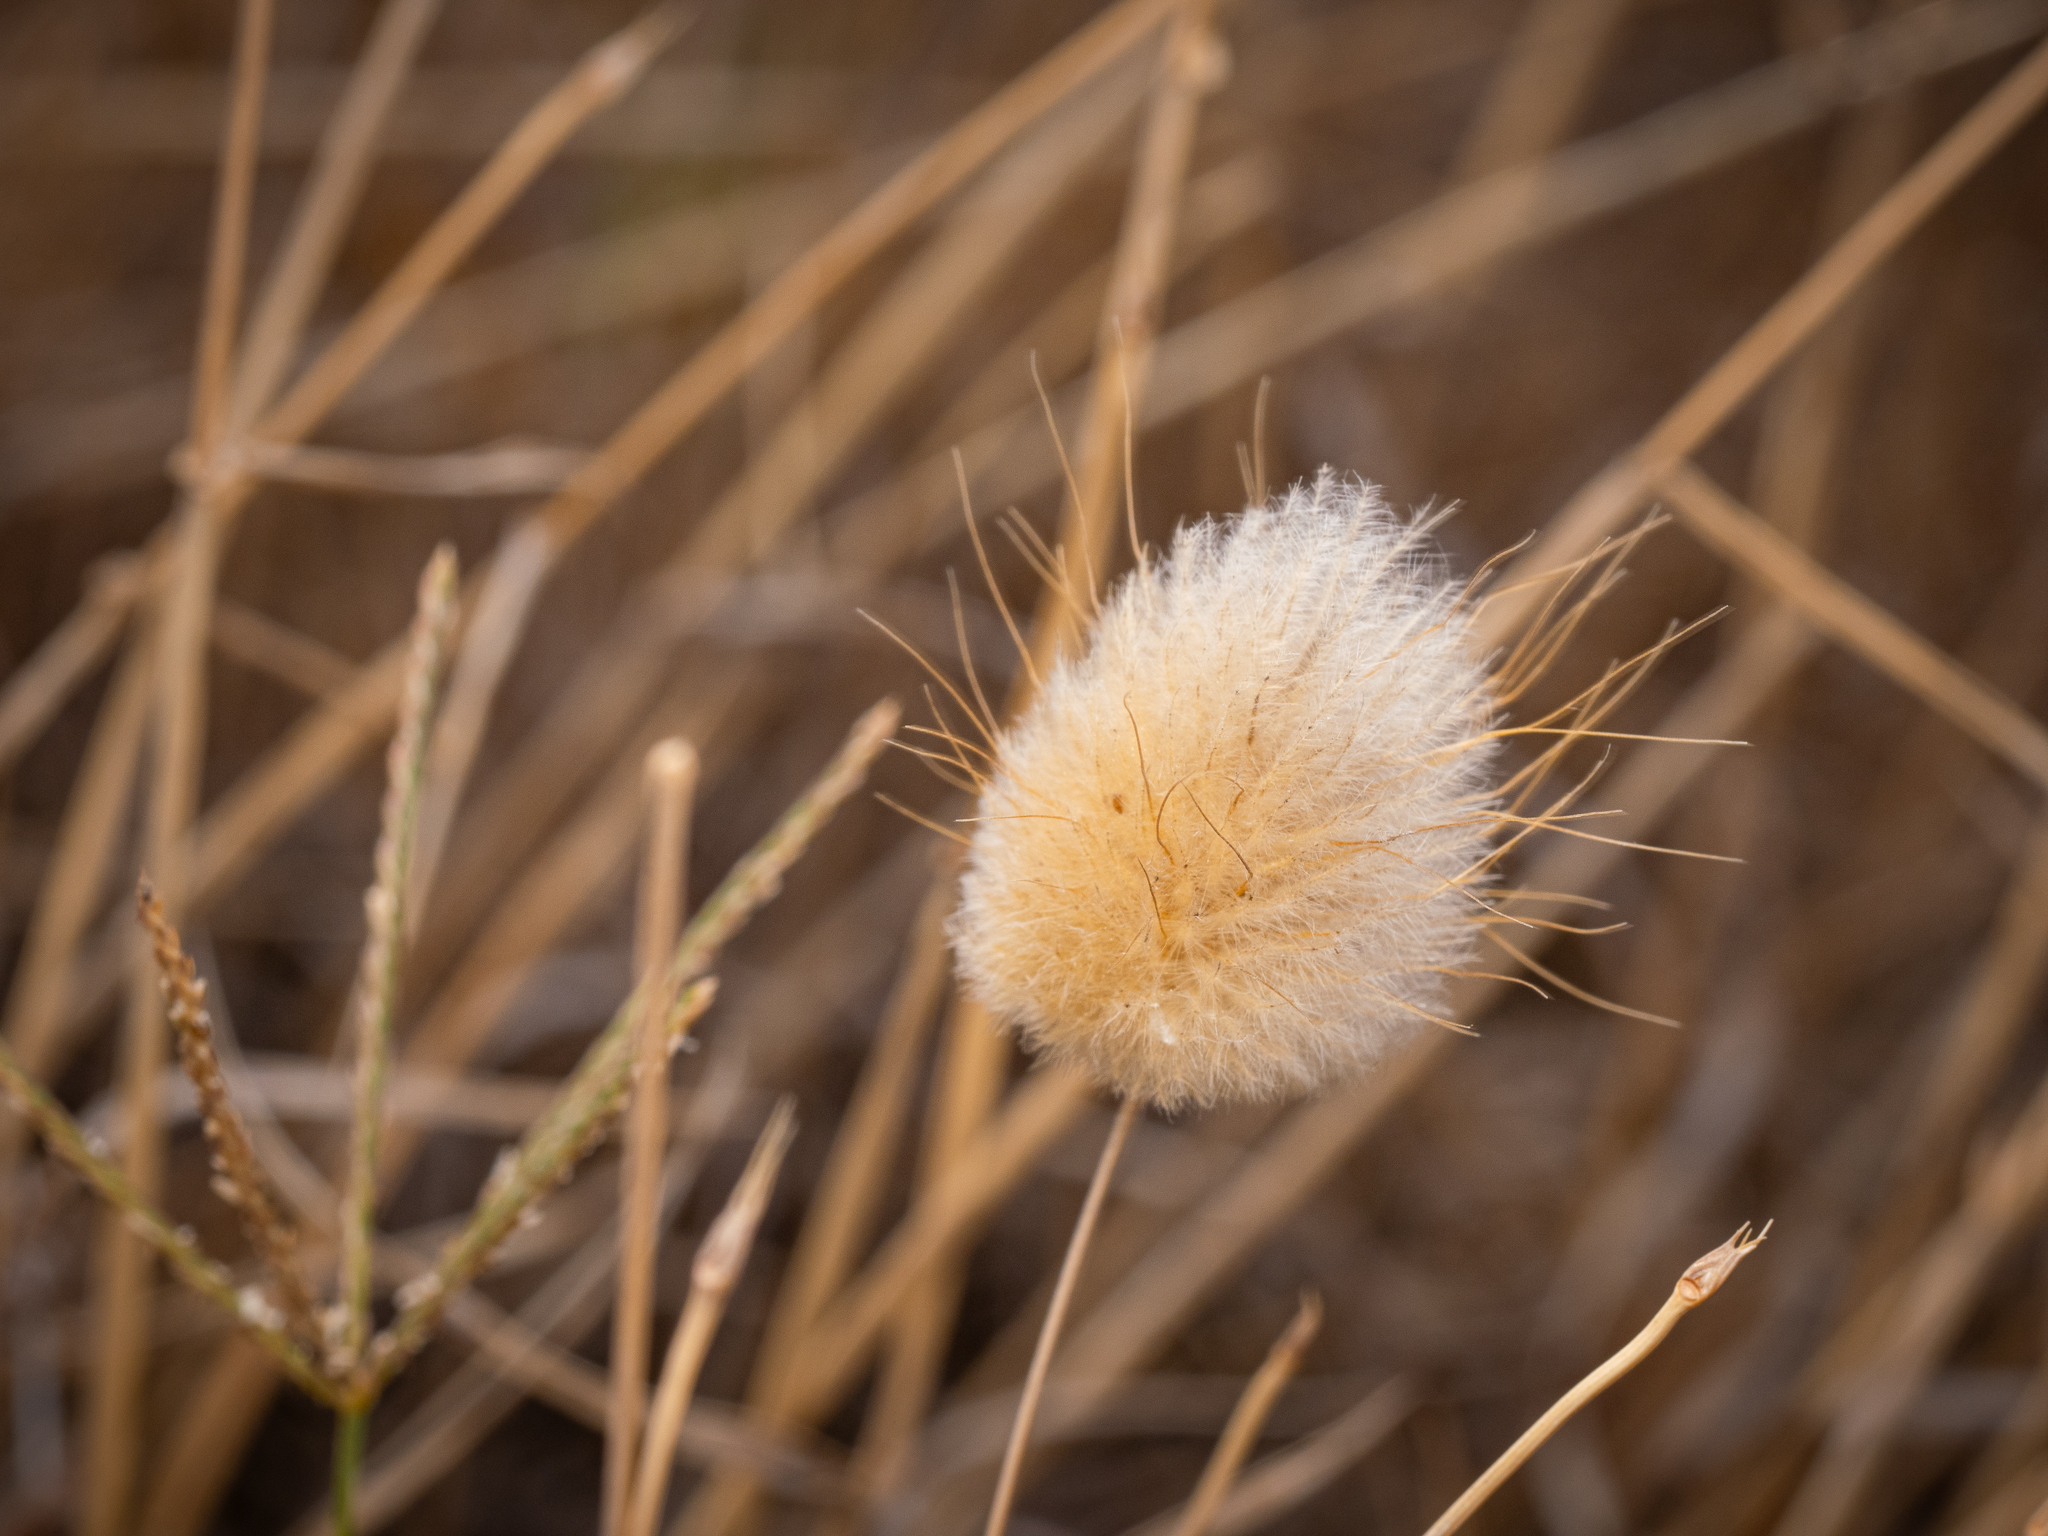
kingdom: Plantae
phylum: Tracheophyta
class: Liliopsida
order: Poales
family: Poaceae
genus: Lagurus
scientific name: Lagurus ovatus
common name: Hare's-tail
